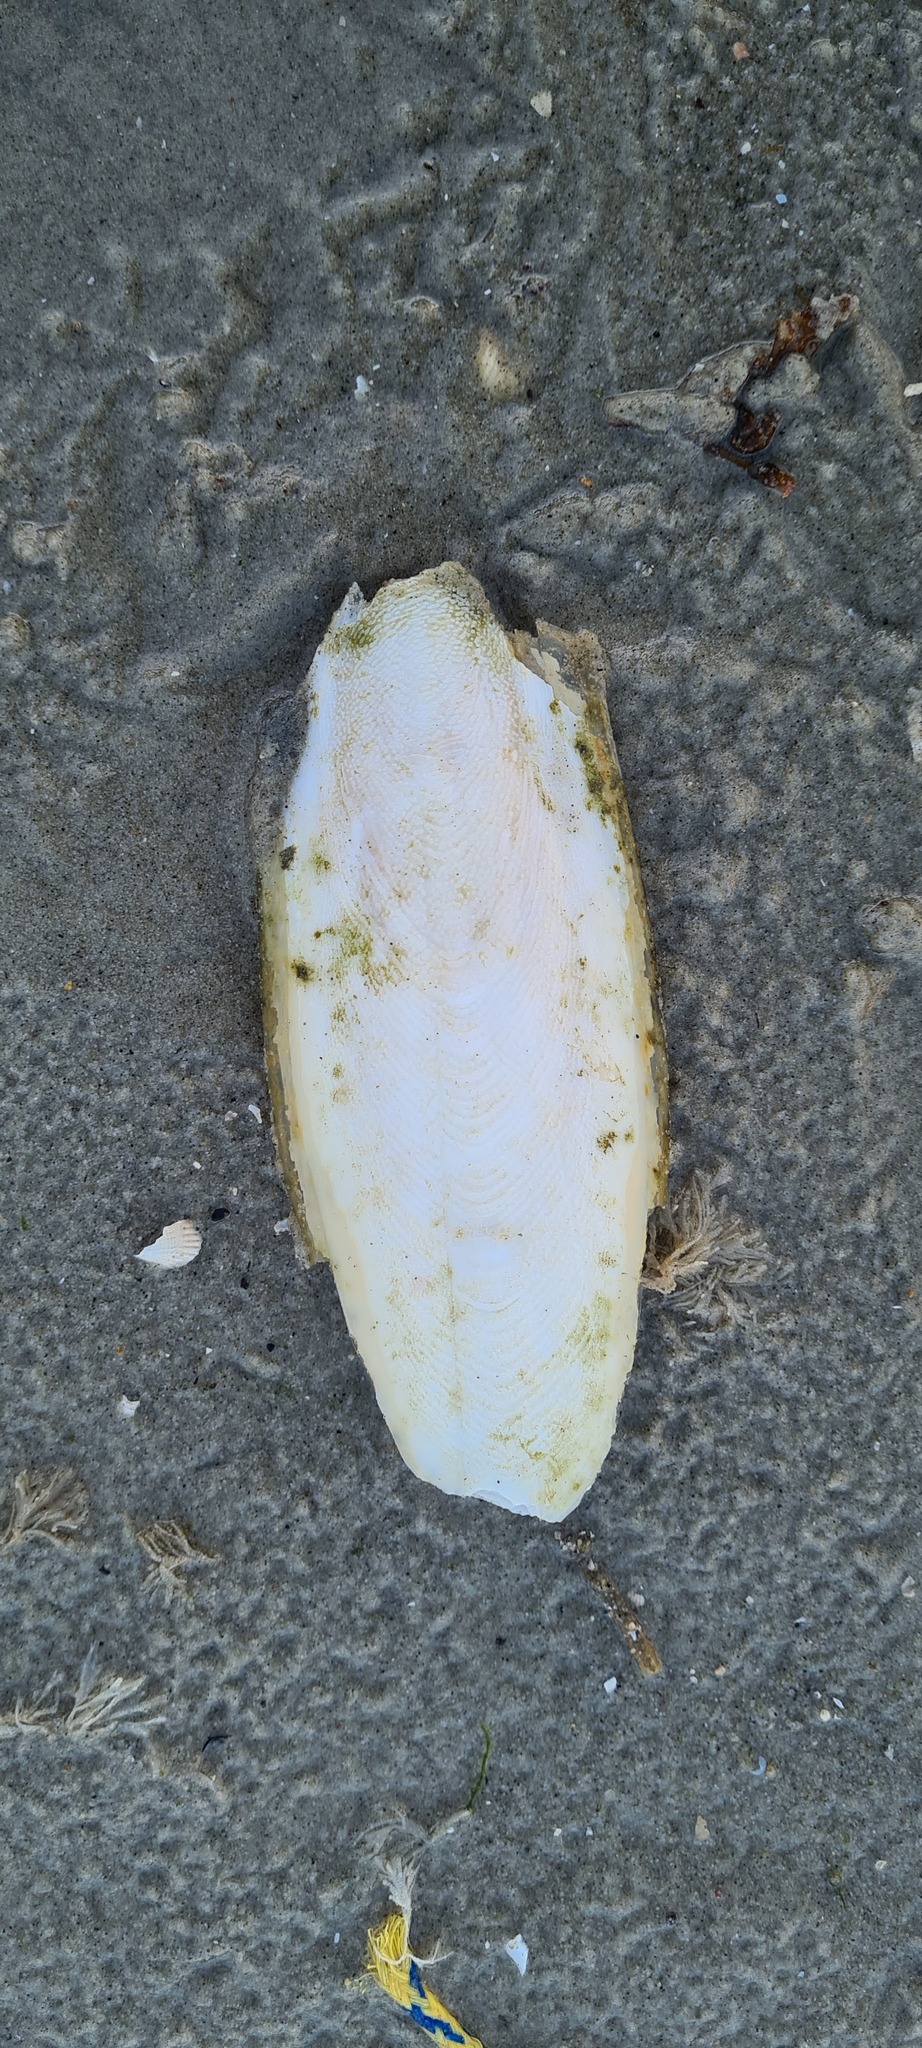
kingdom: Animalia
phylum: Mollusca
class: Cephalopoda
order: Sepiida
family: Sepiidae
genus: Sepia
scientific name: Sepia officinalis
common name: Common cuttlefish
